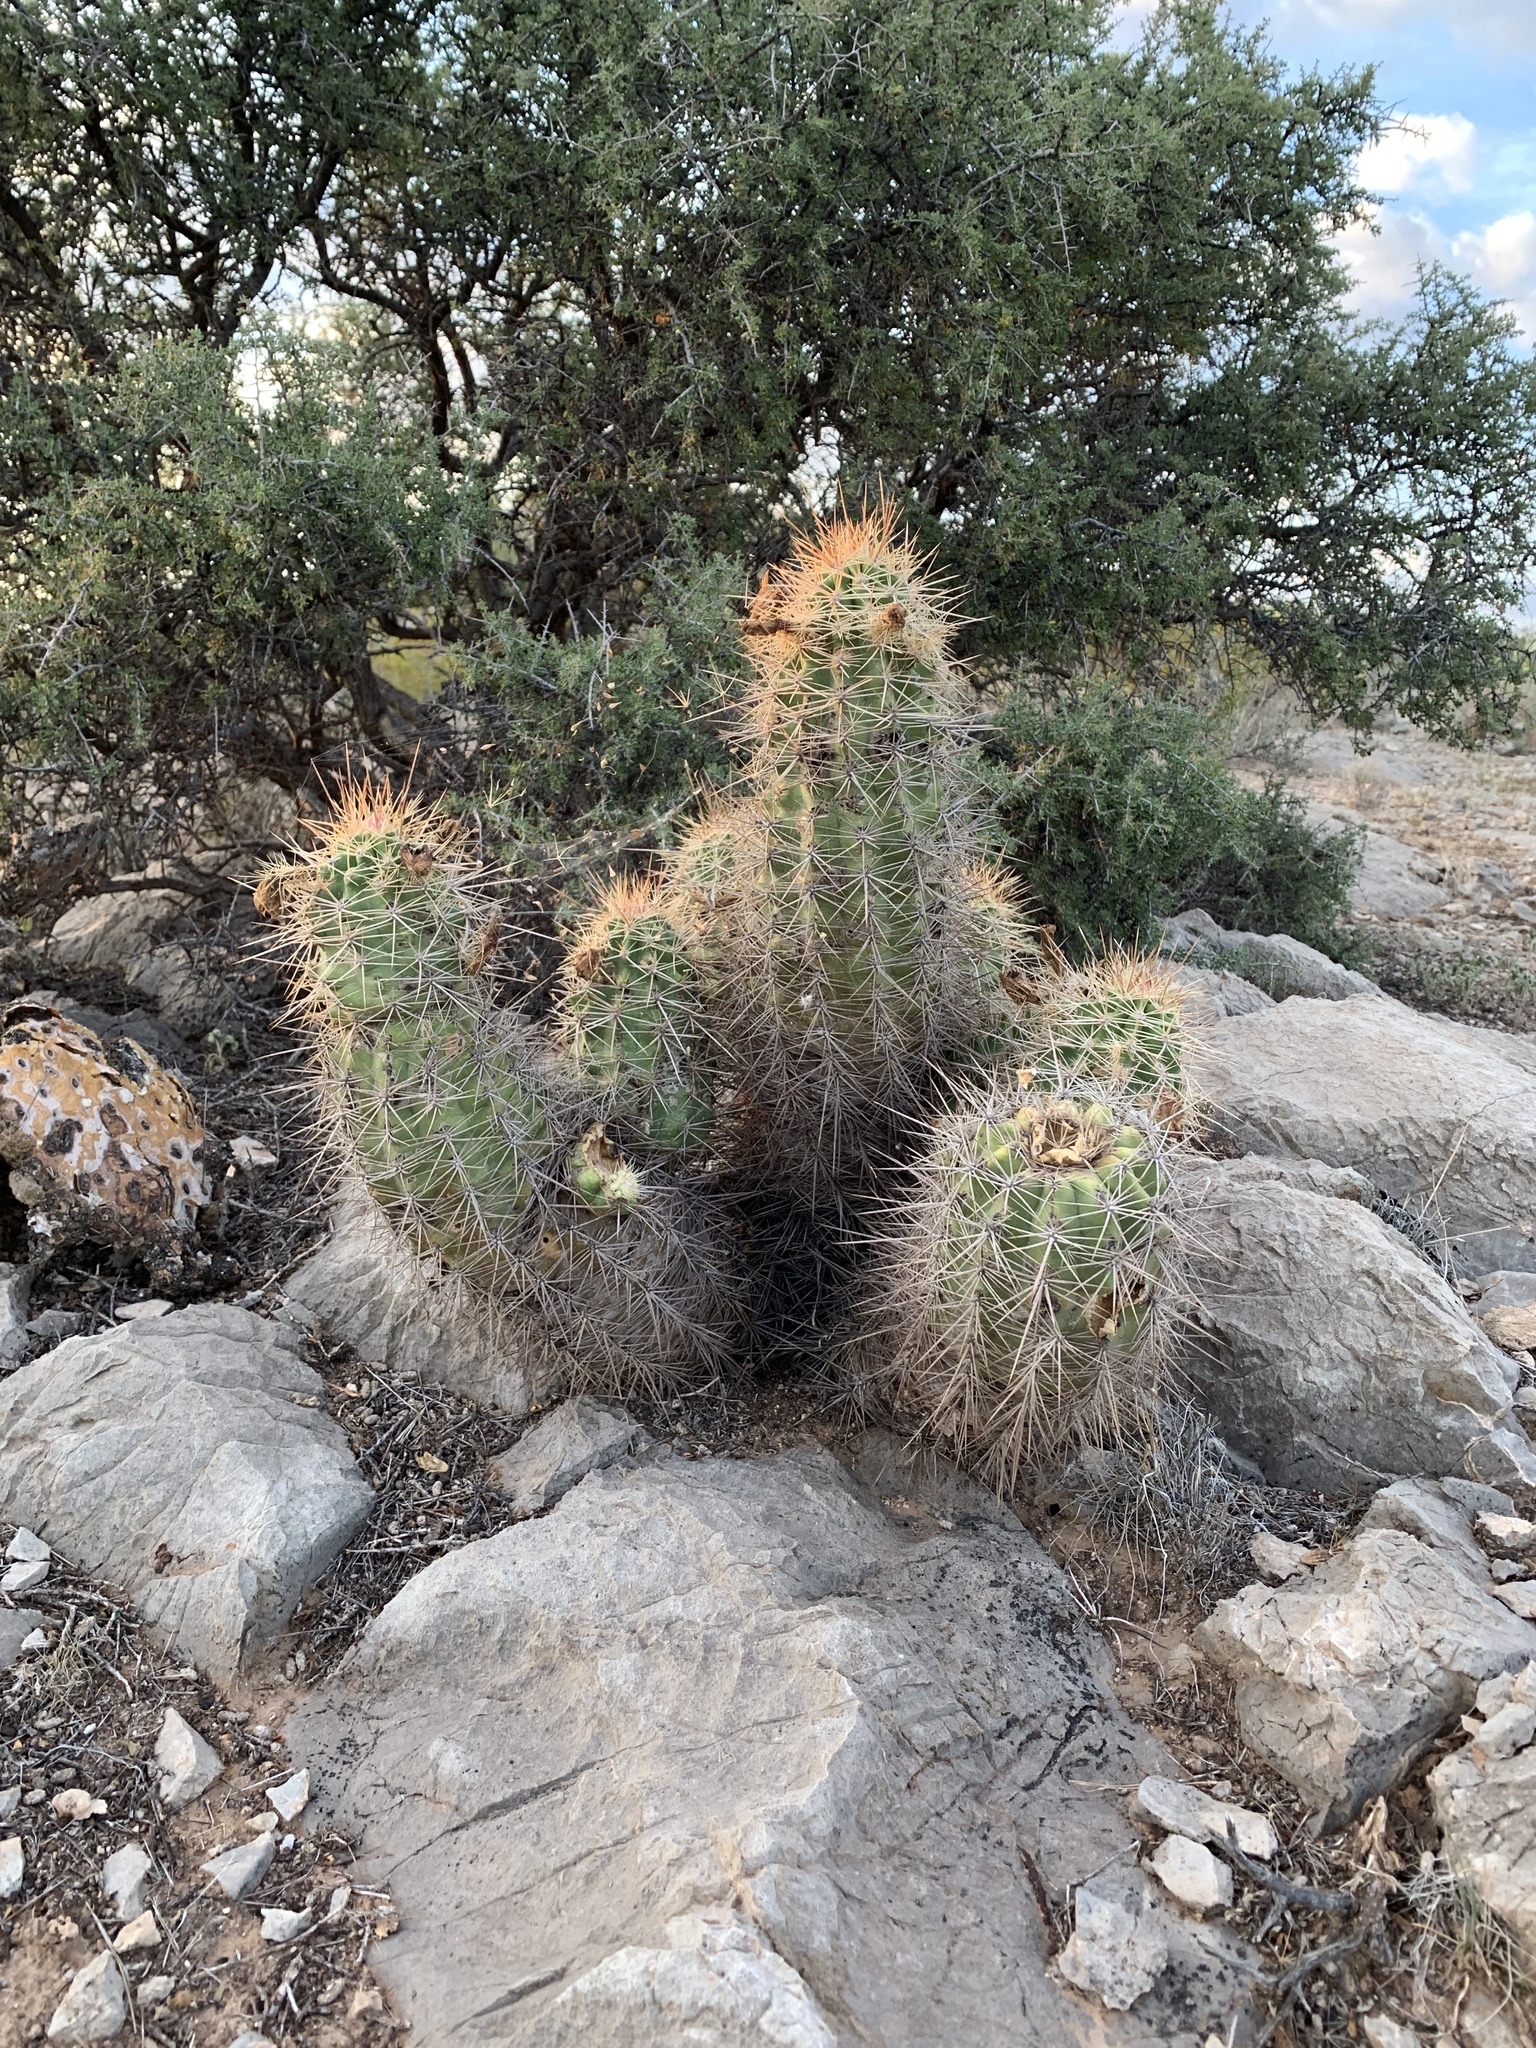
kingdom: Plantae
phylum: Tracheophyta
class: Magnoliopsida
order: Caryophyllales
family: Cactaceae
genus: Echinocereus
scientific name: Echinocereus coccineus
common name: Scarlet hedgehog cactus
